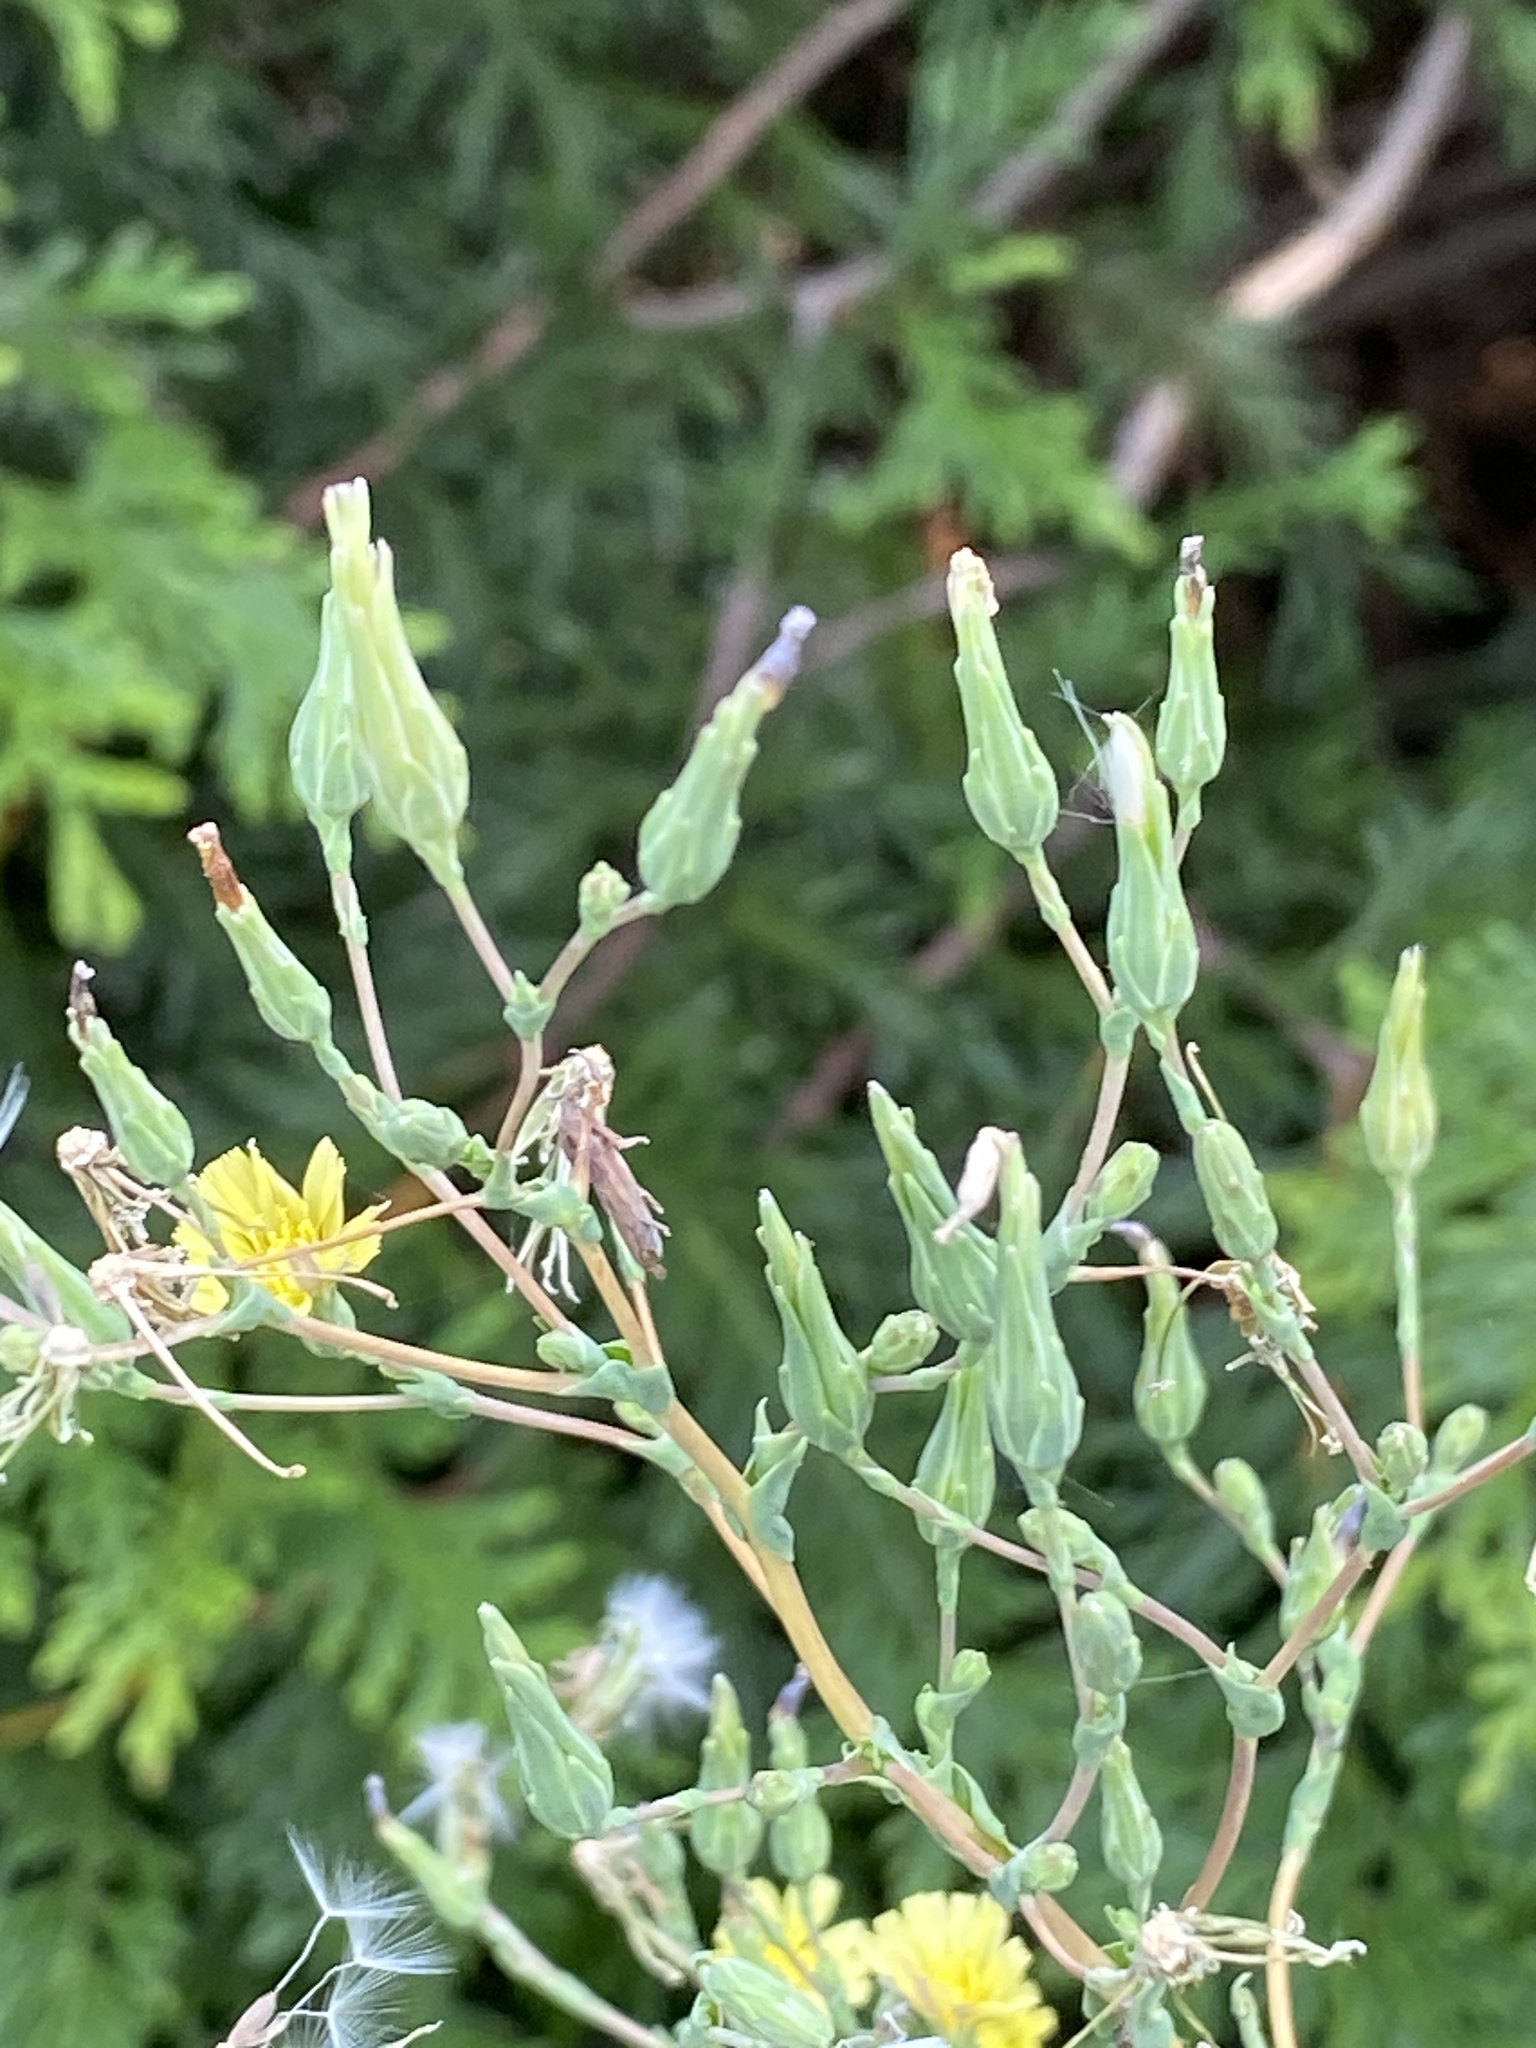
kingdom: Plantae
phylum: Tracheophyta
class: Magnoliopsida
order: Asterales
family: Asteraceae
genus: Lactuca
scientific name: Lactuca serriola
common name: Prickly lettuce
